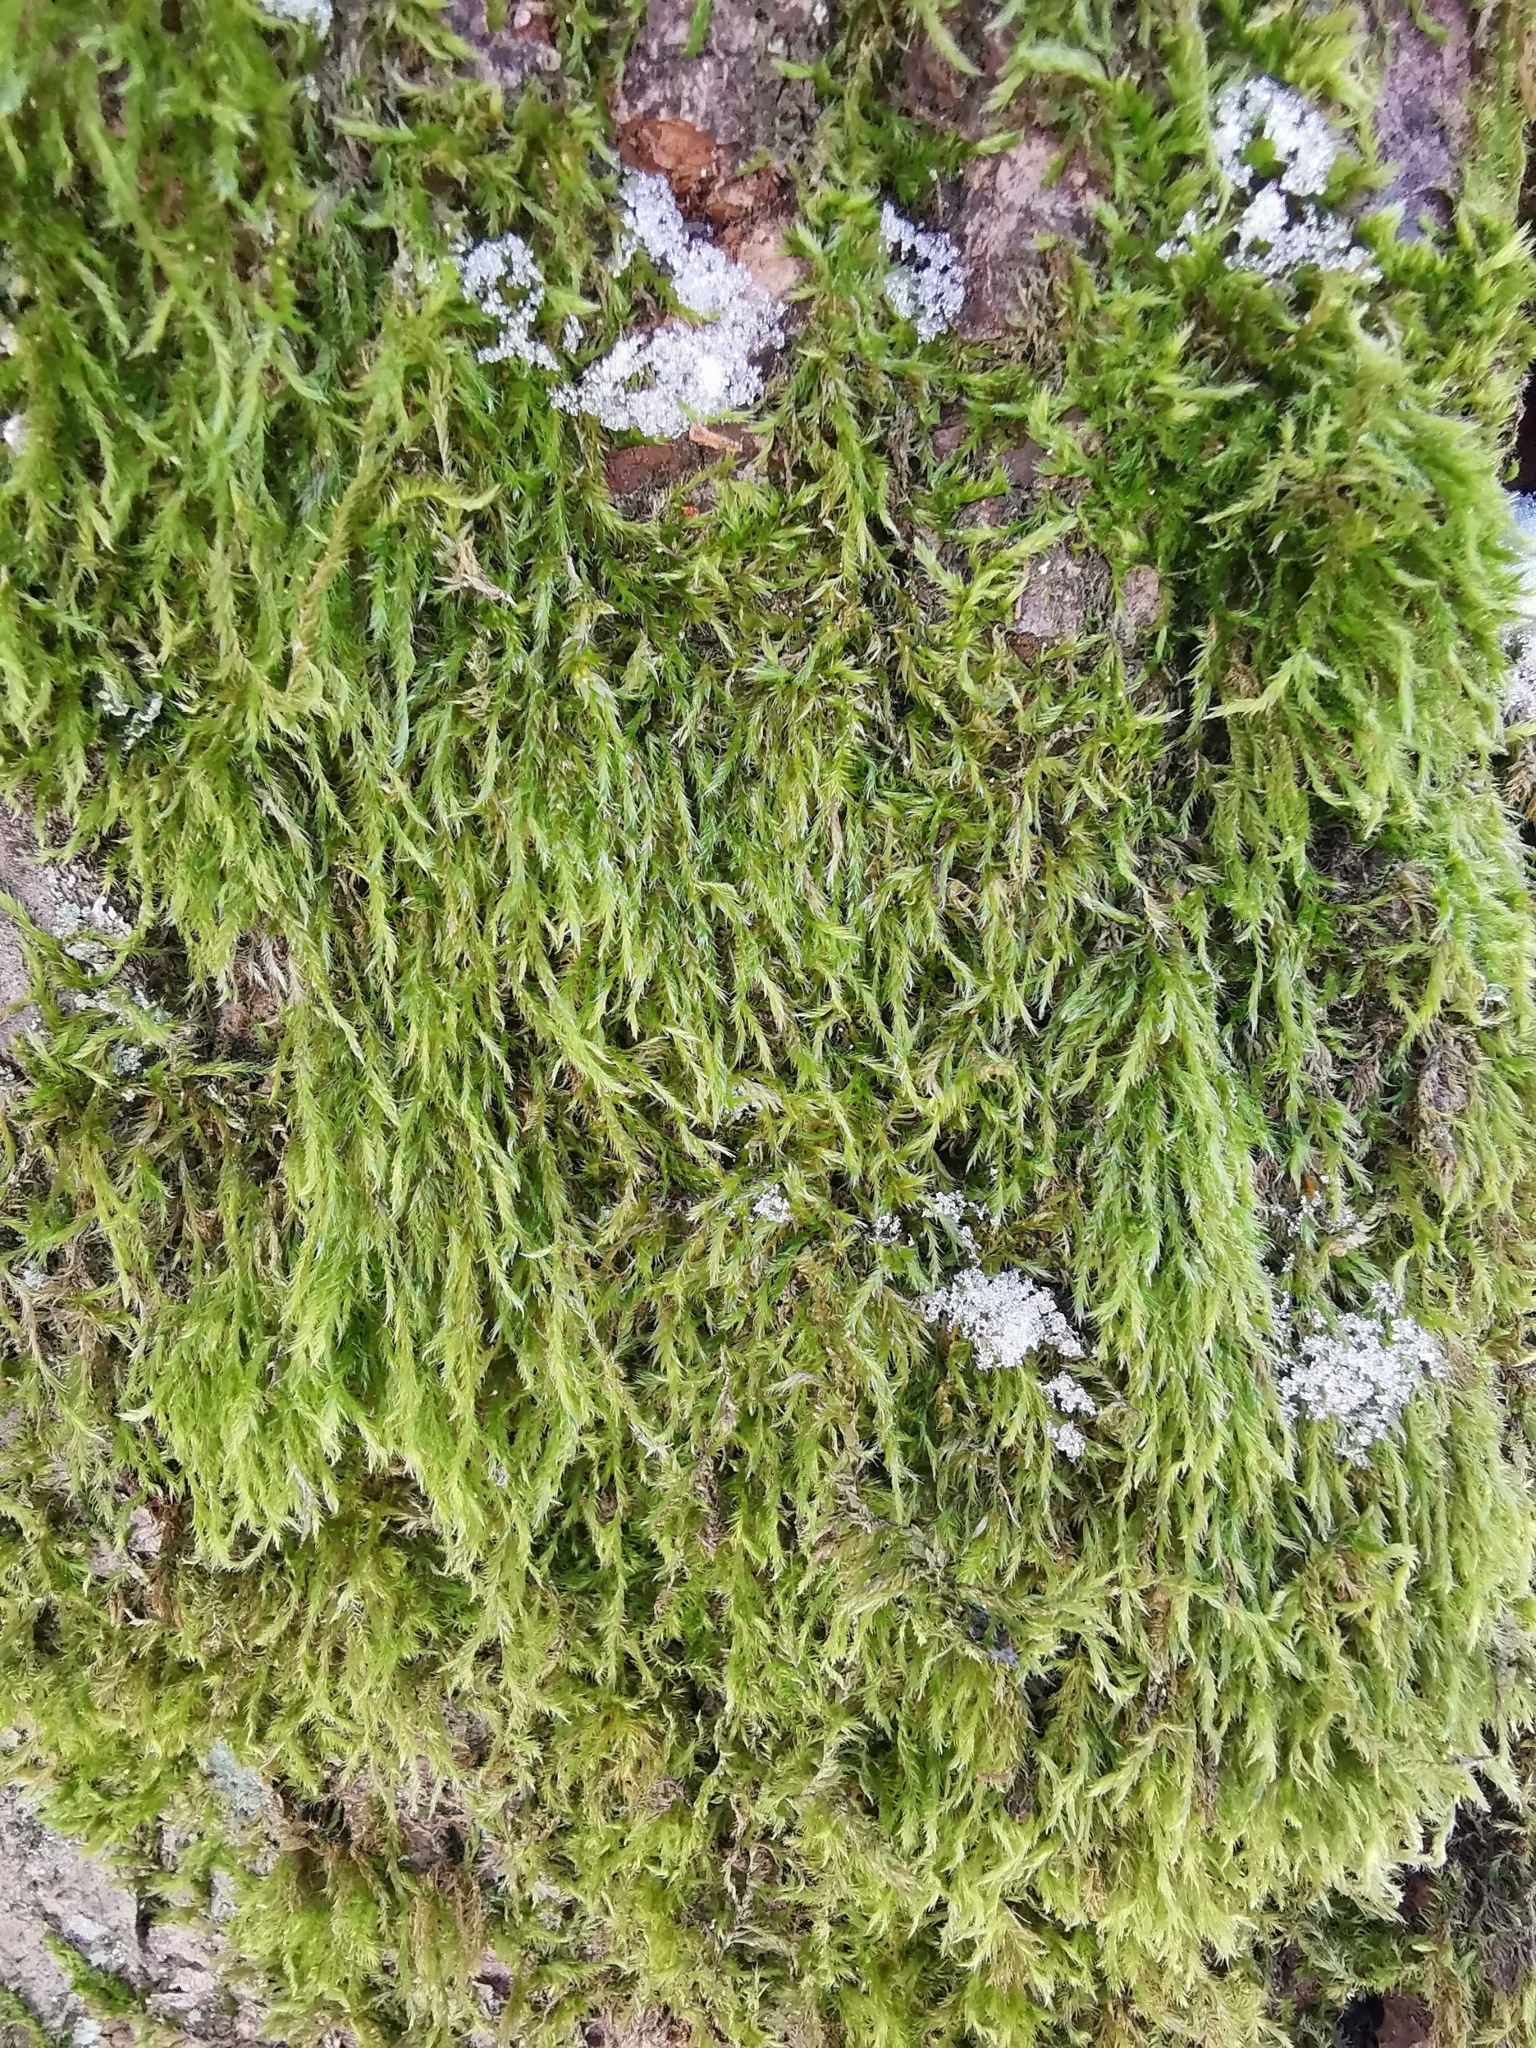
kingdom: Plantae
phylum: Bryophyta
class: Bryopsida
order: Hypnales
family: Hypnaceae
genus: Hypnum
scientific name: Hypnum cupressiforme
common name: Cypress-leaved plait-moss
